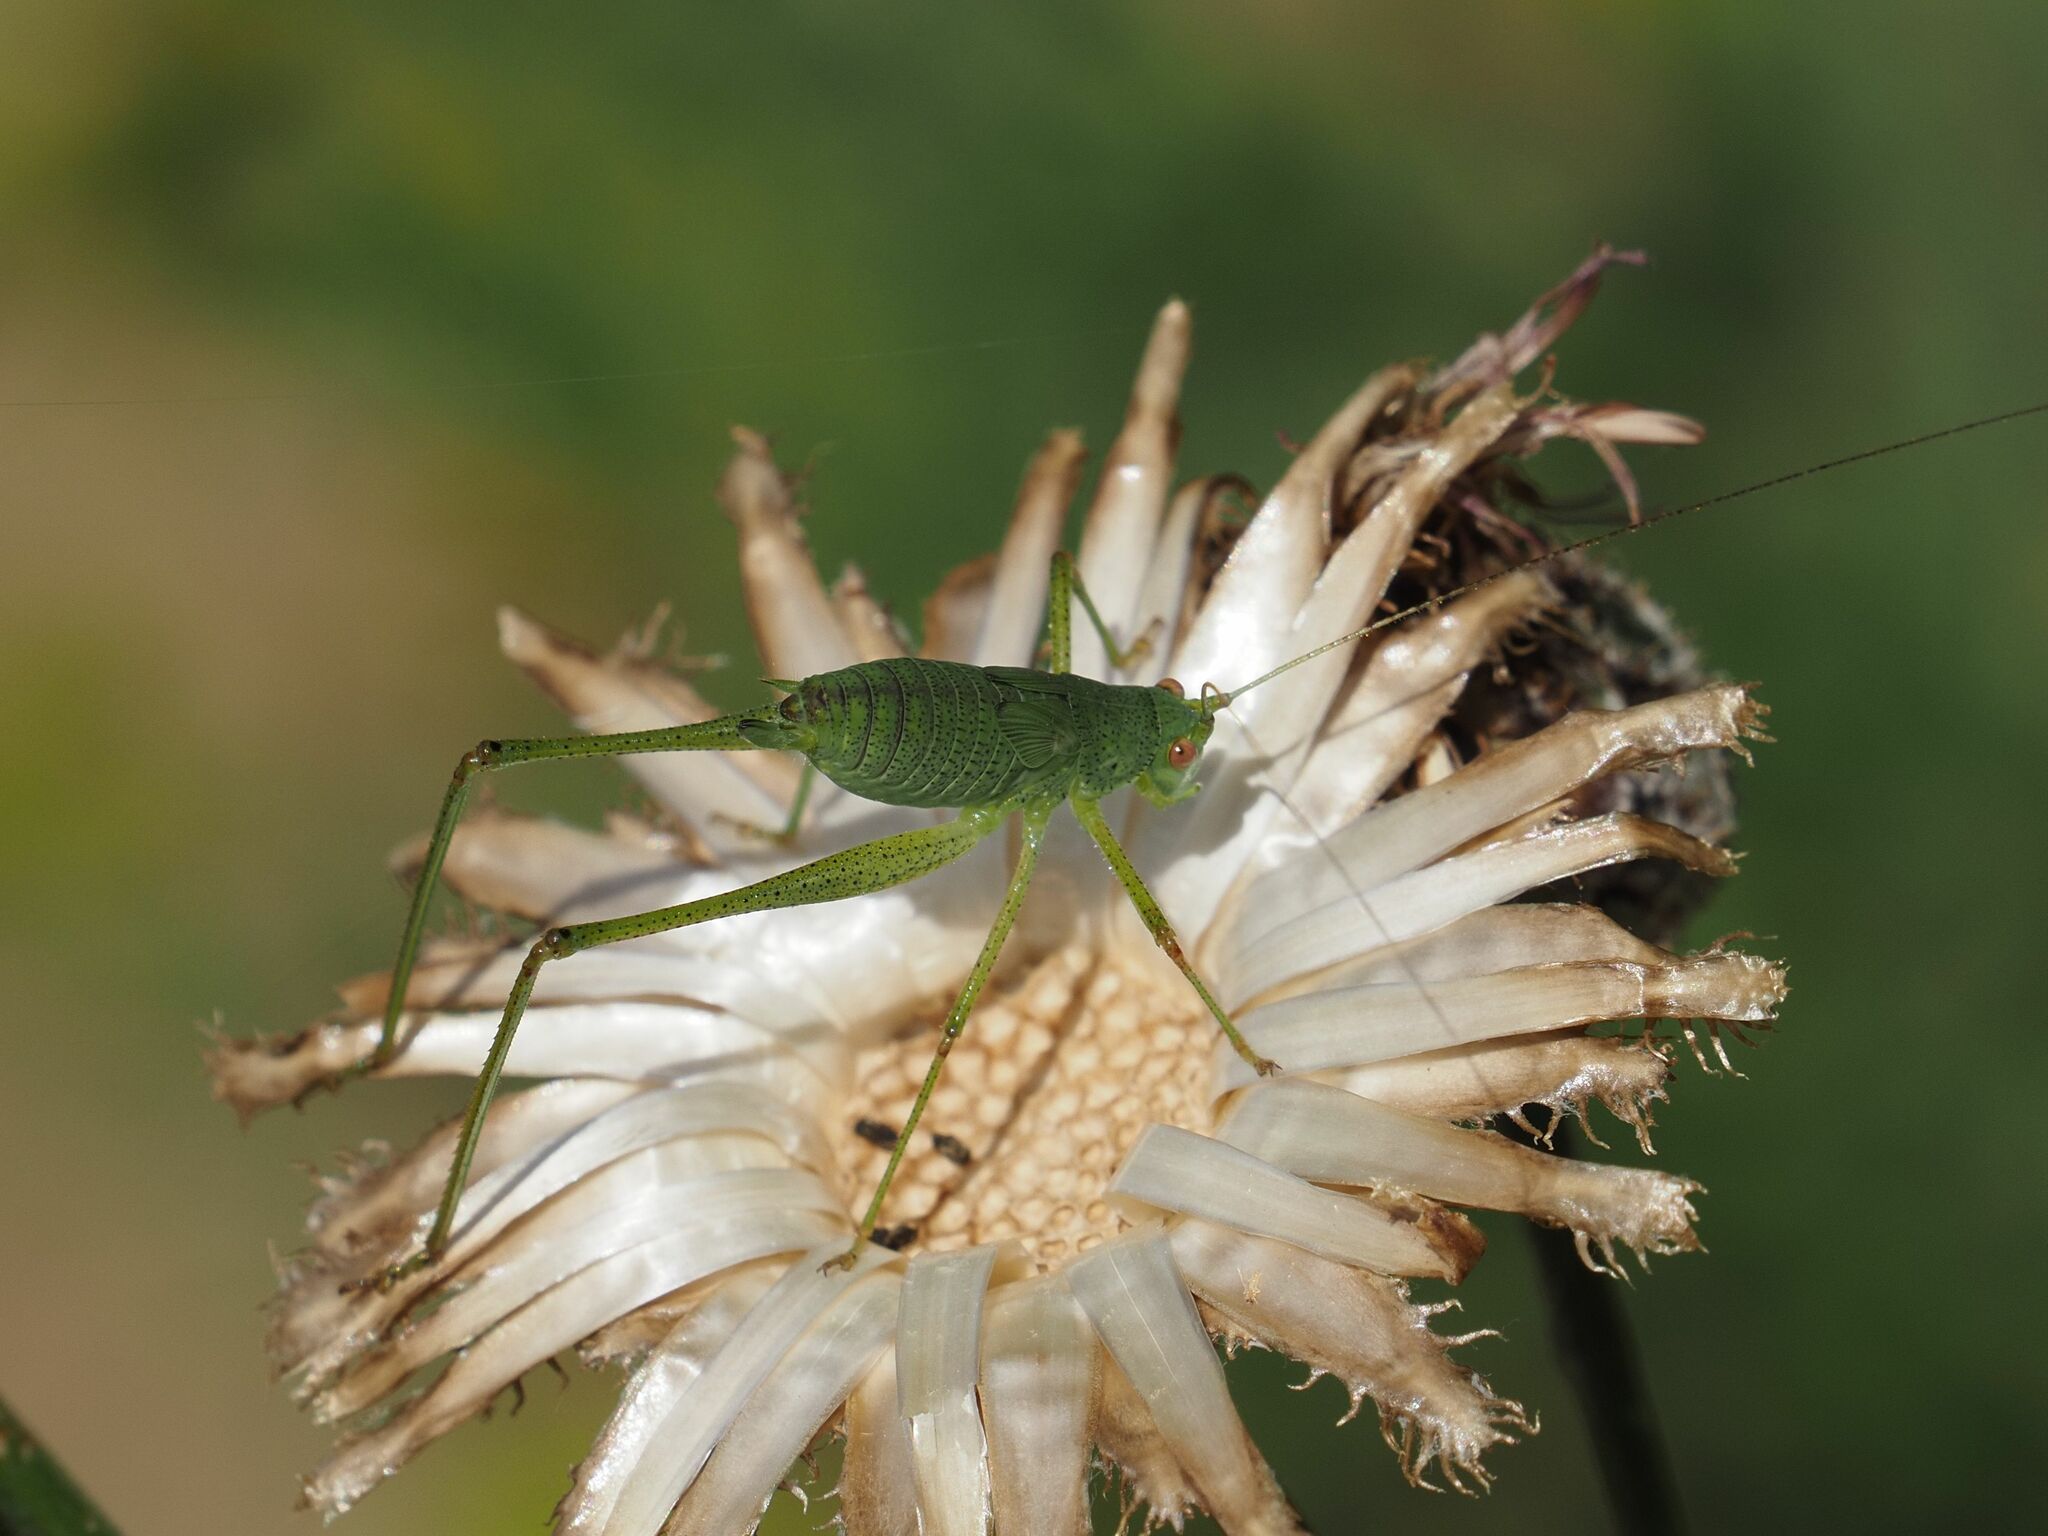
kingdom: Animalia
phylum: Arthropoda
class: Insecta
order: Orthoptera
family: Tettigoniidae
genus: Phaneroptera
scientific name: Phaneroptera nana
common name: Southern sickle bush-cricket
